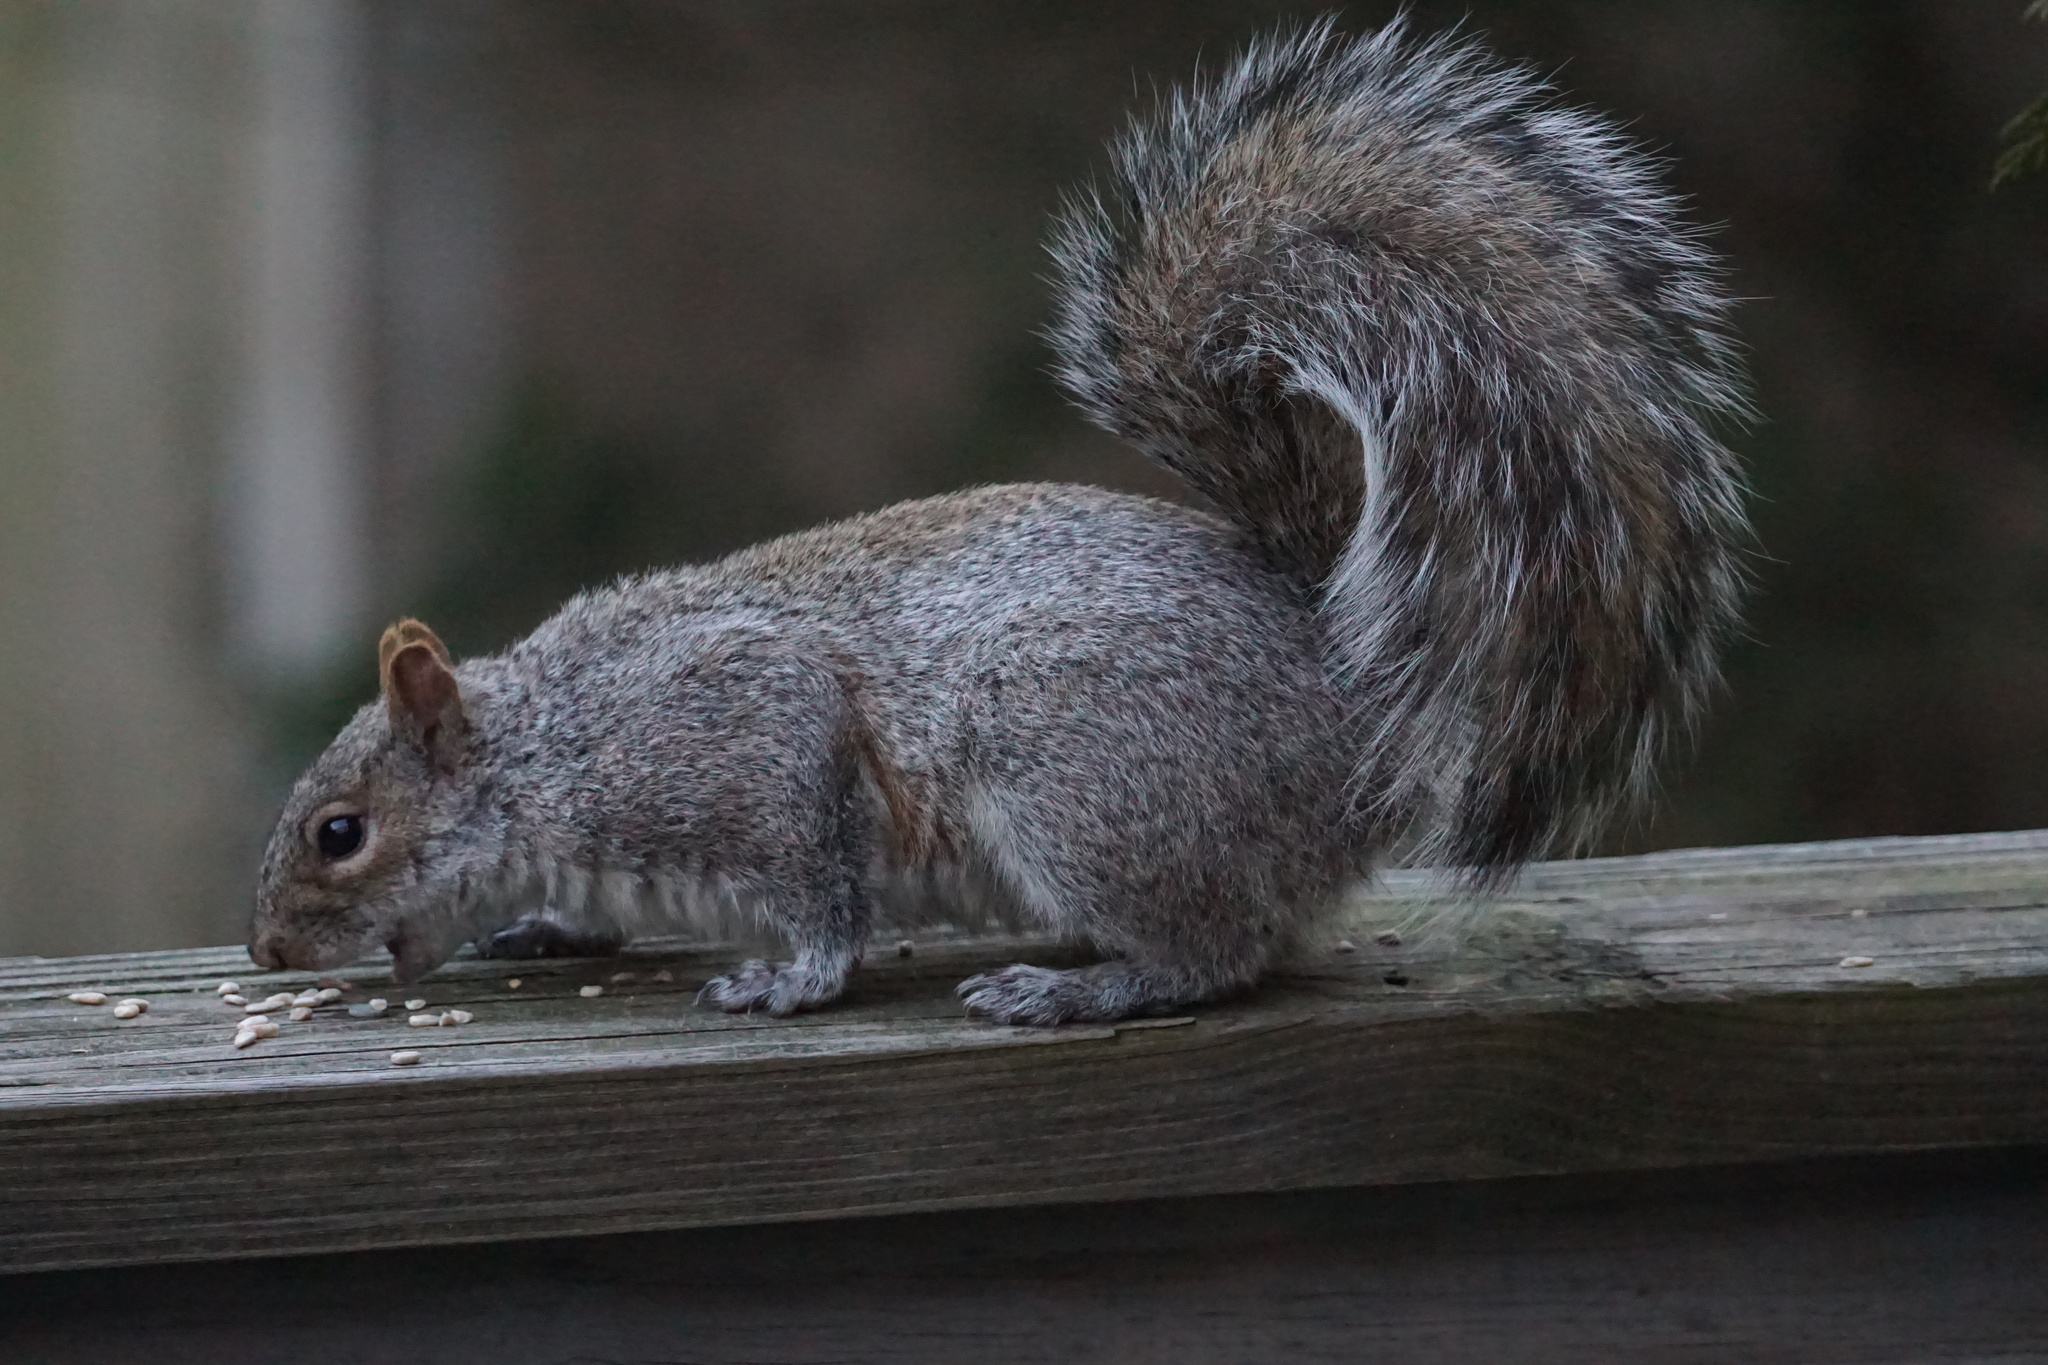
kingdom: Animalia
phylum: Chordata
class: Mammalia
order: Rodentia
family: Sciuridae
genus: Sciurus
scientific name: Sciurus carolinensis
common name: Eastern gray squirrel
